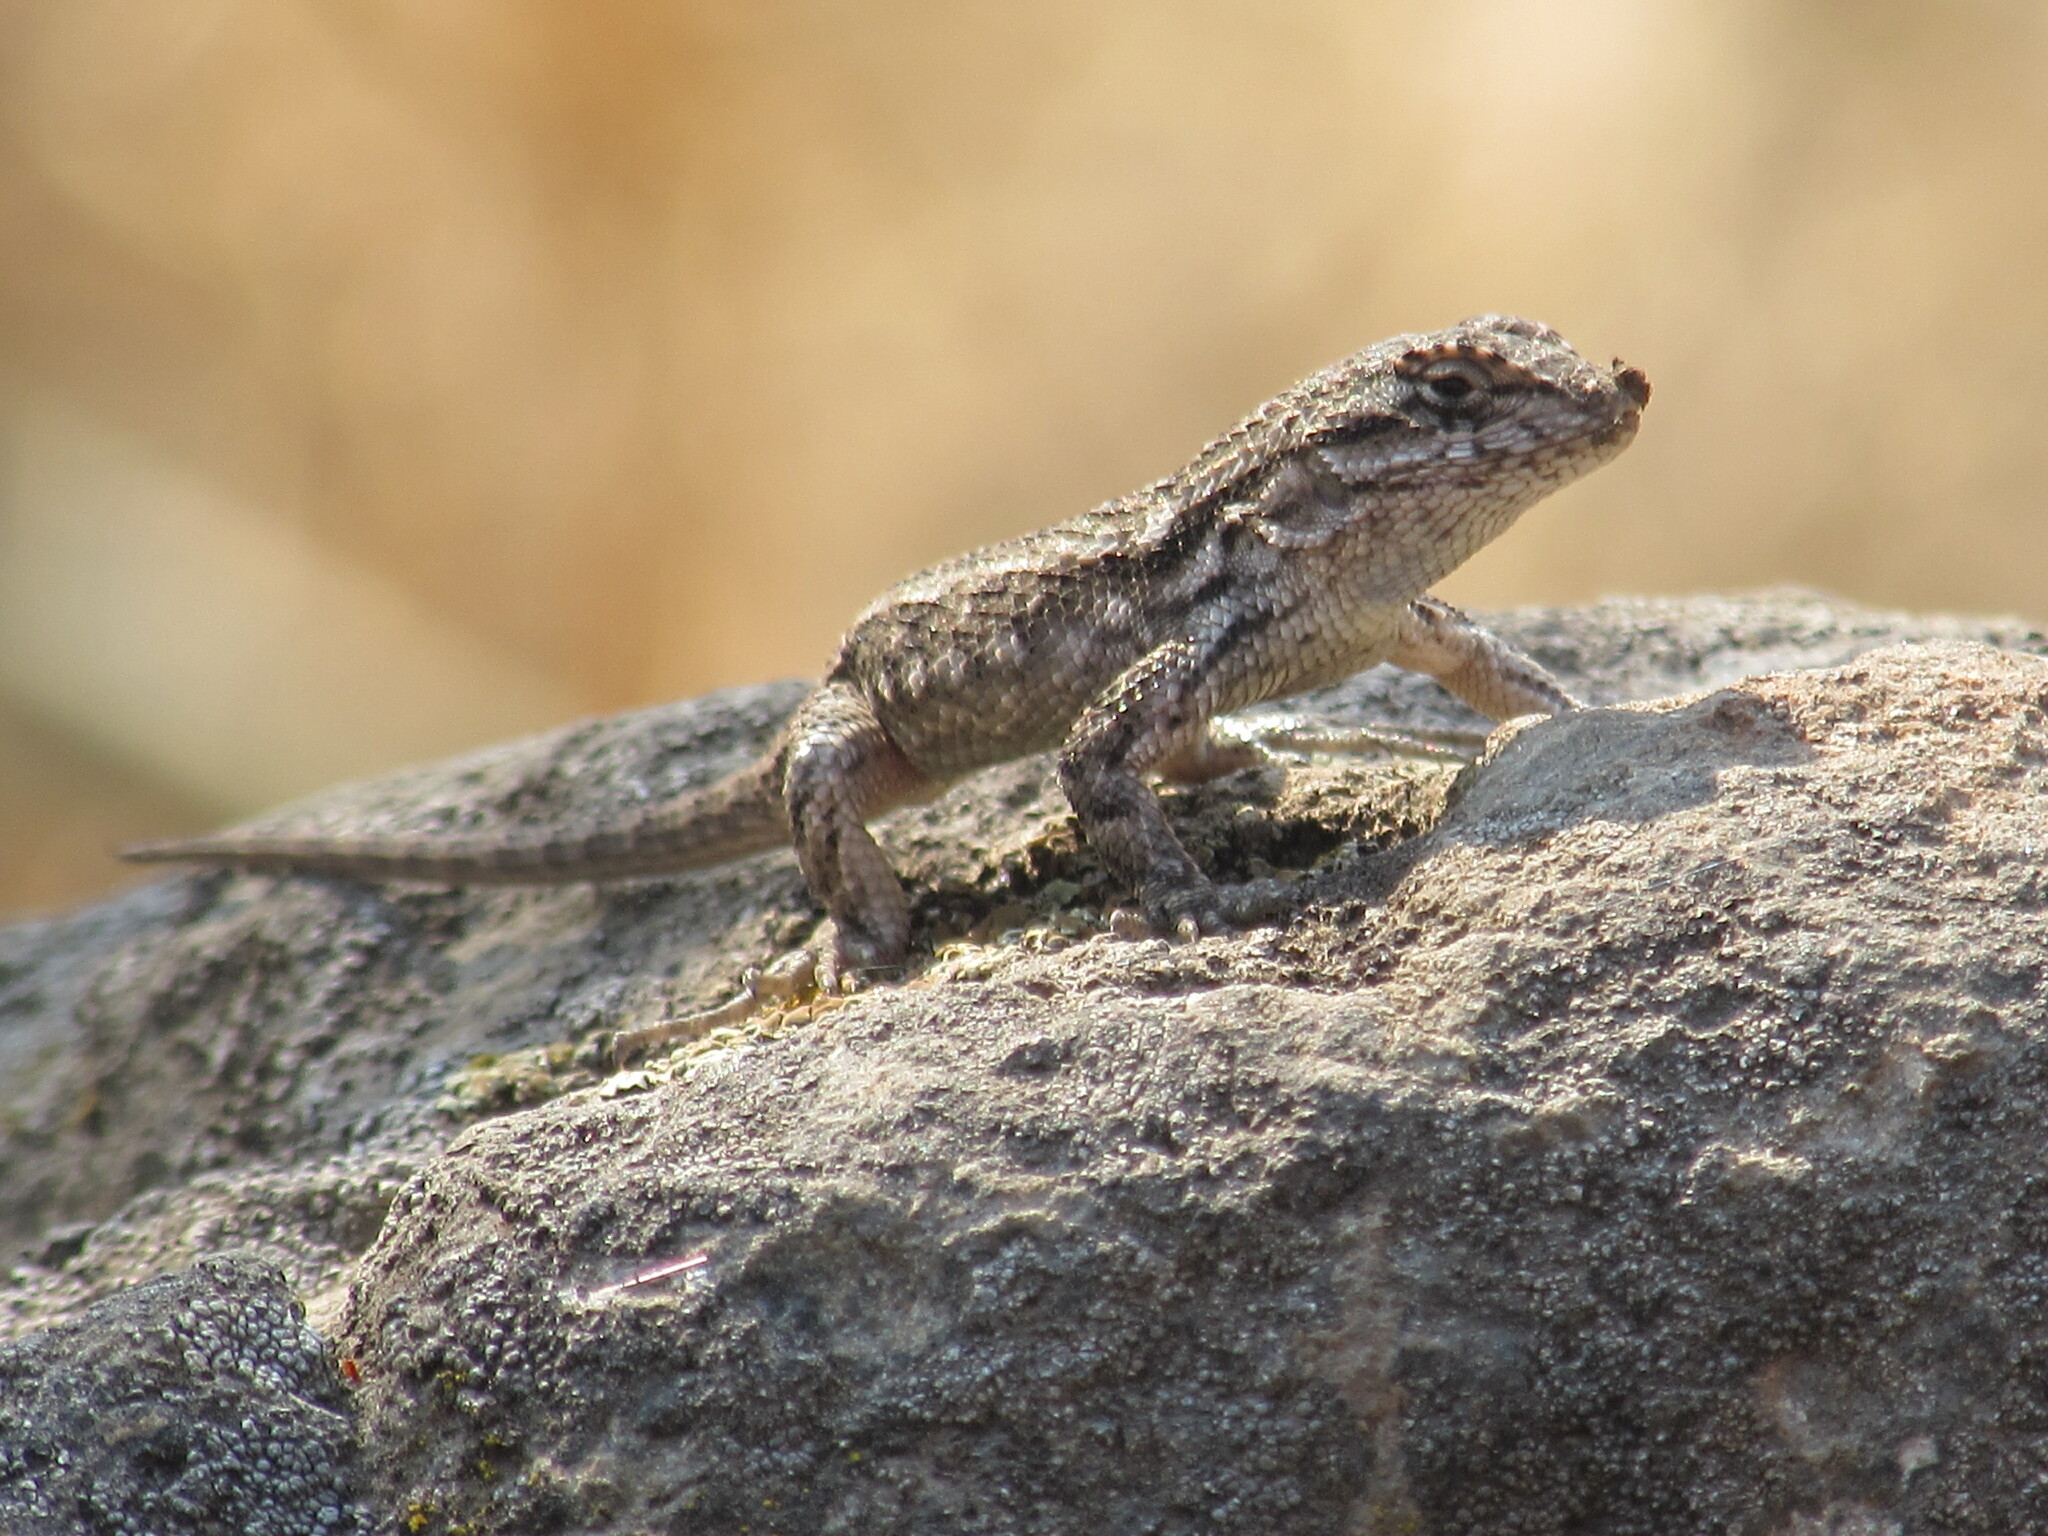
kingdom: Animalia
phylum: Chordata
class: Squamata
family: Phrynosomatidae
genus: Sceloporus
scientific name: Sceloporus occidentalis
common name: Western fence lizard
